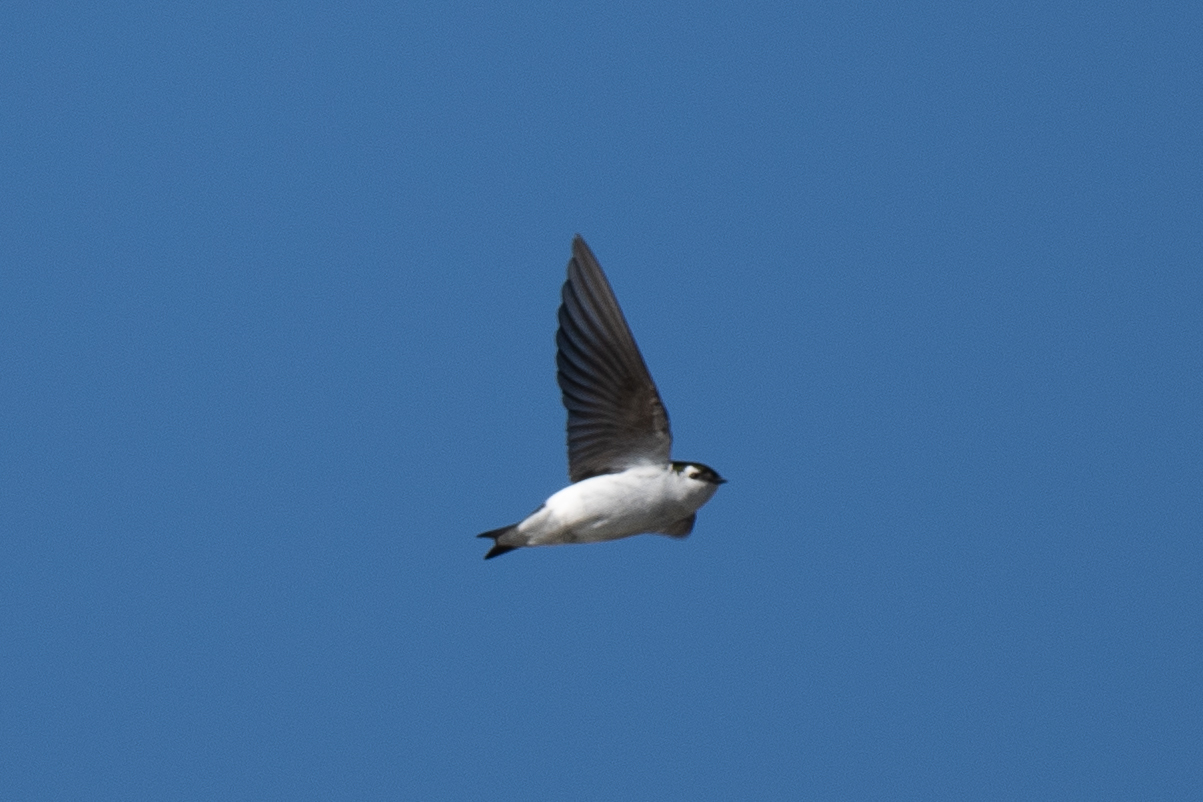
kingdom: Animalia
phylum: Chordata
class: Aves
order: Passeriformes
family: Hirundinidae
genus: Tachycineta
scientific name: Tachycineta thalassina
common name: Violet-green swallow
